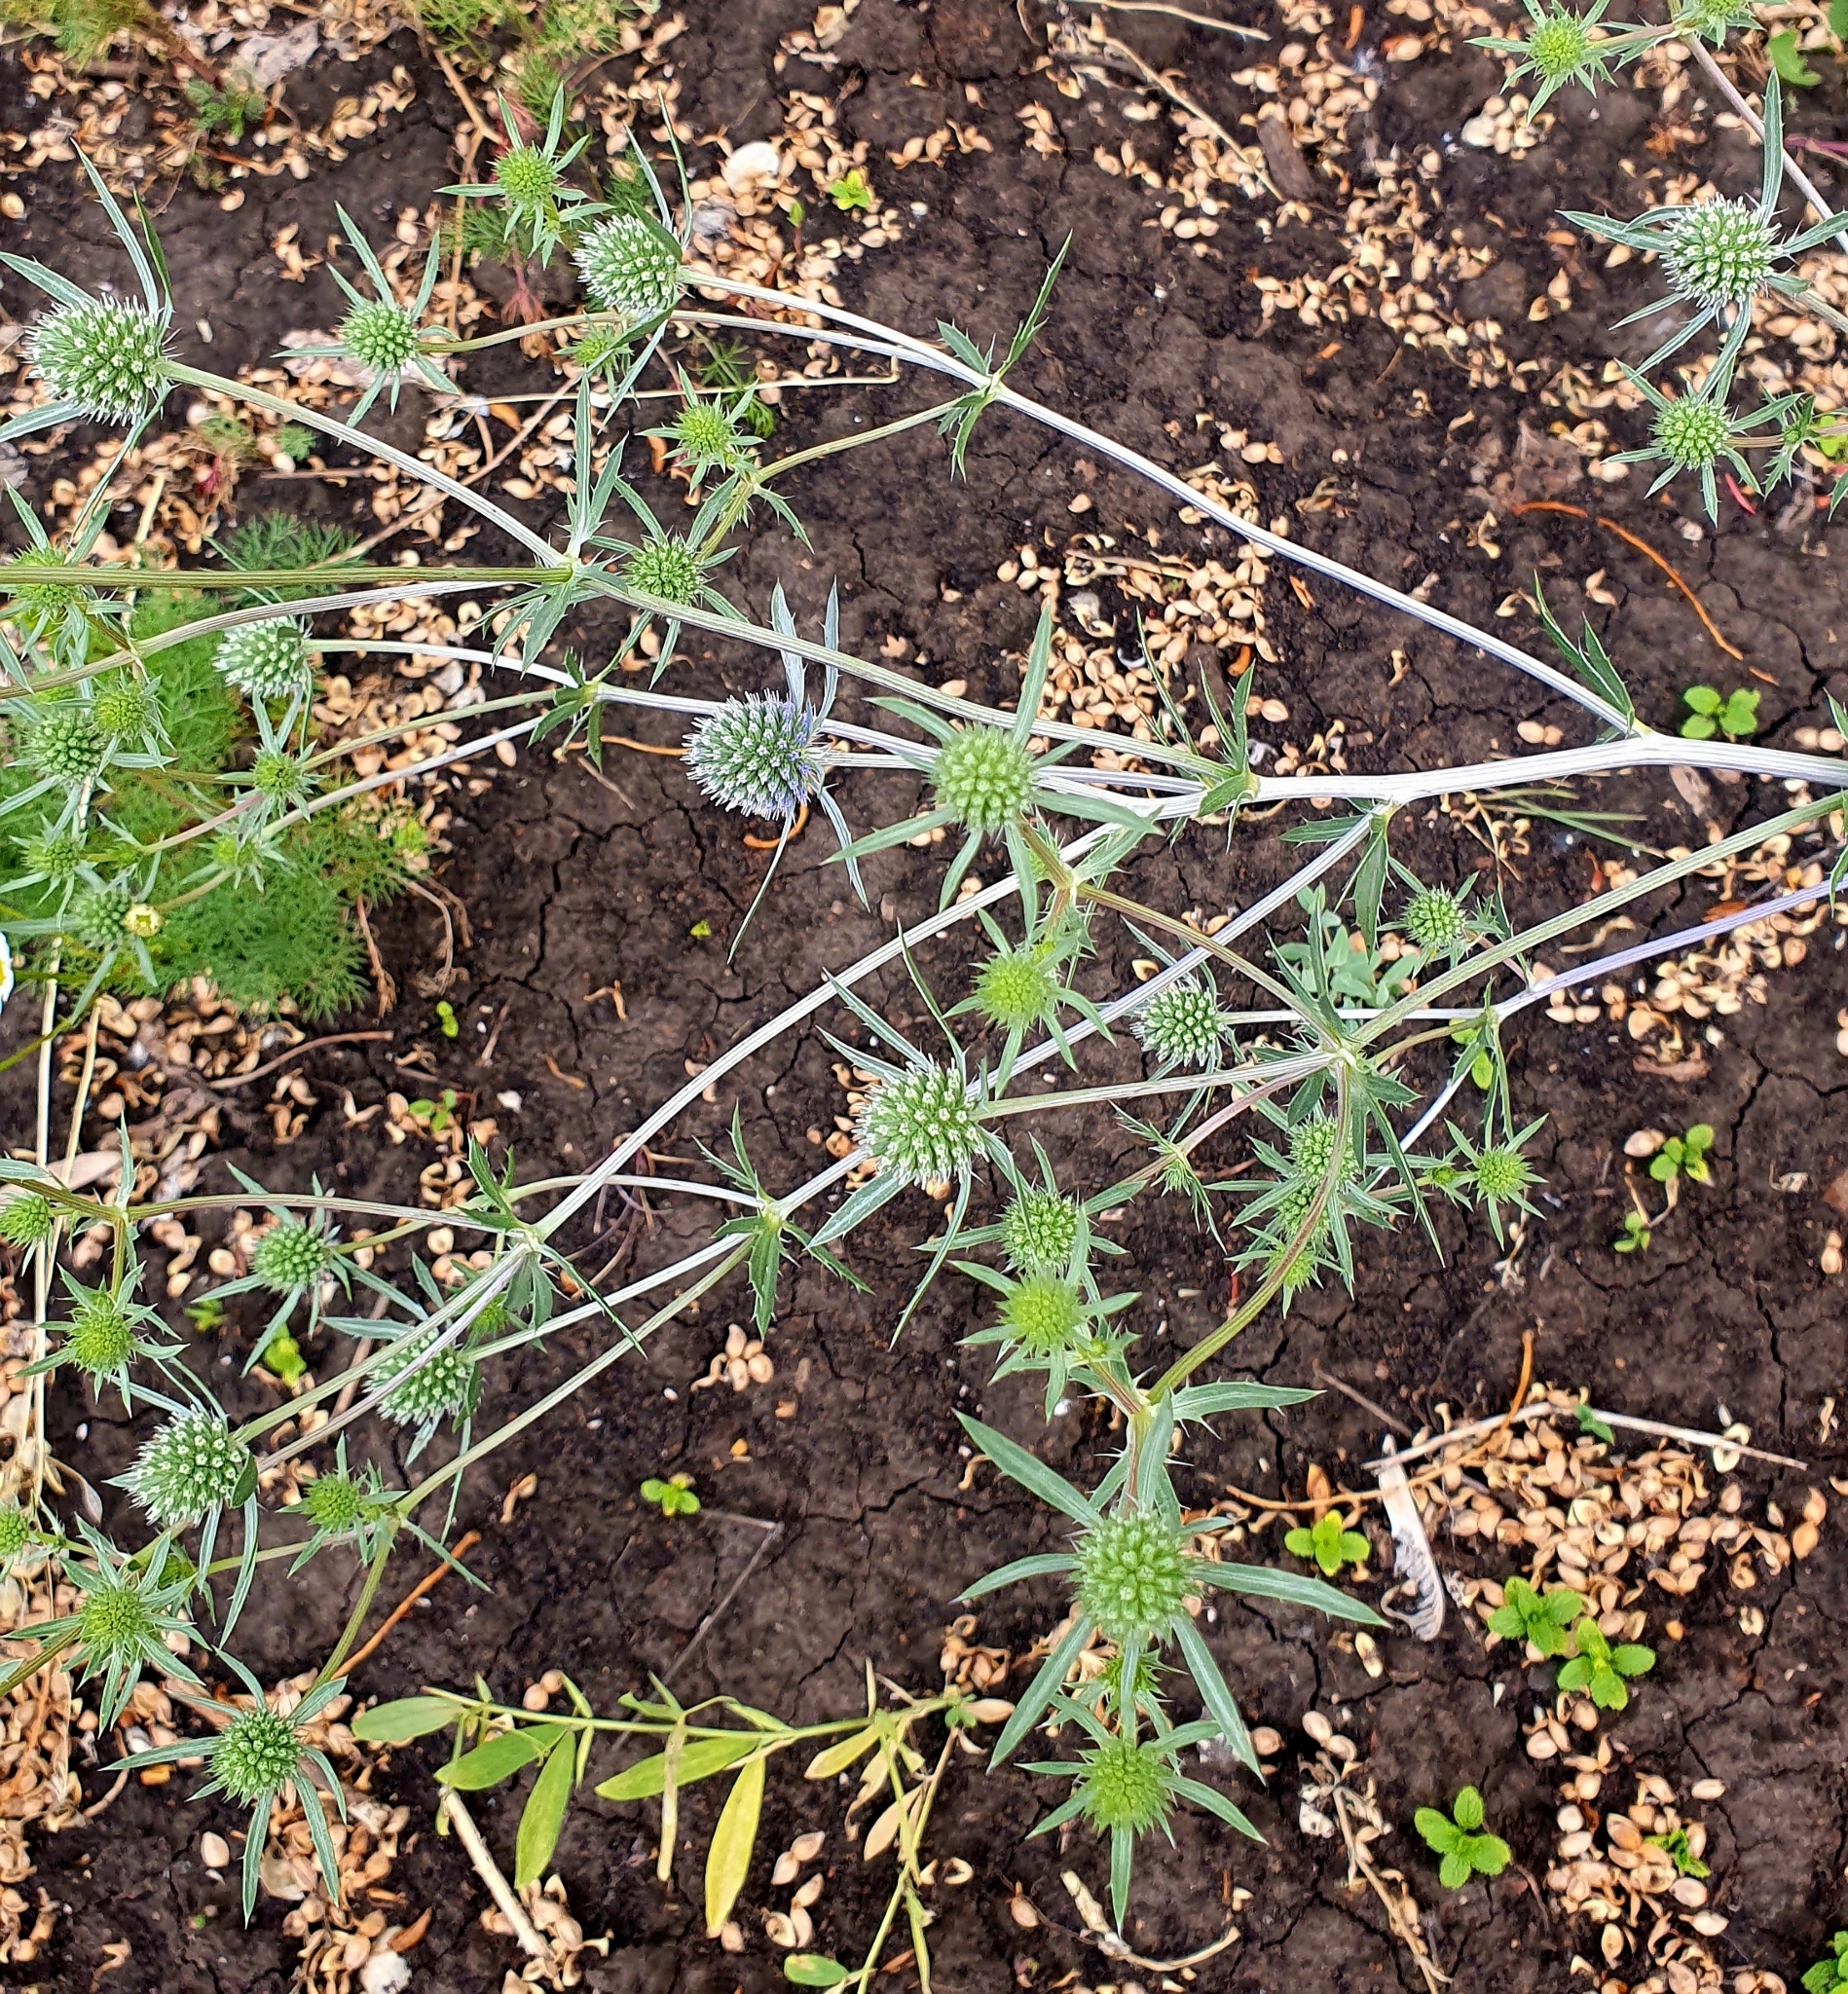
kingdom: Plantae
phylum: Tracheophyta
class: Magnoliopsida
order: Apiales
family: Apiaceae
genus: Eryngium
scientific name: Eryngium planum
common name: Blue eryngo
